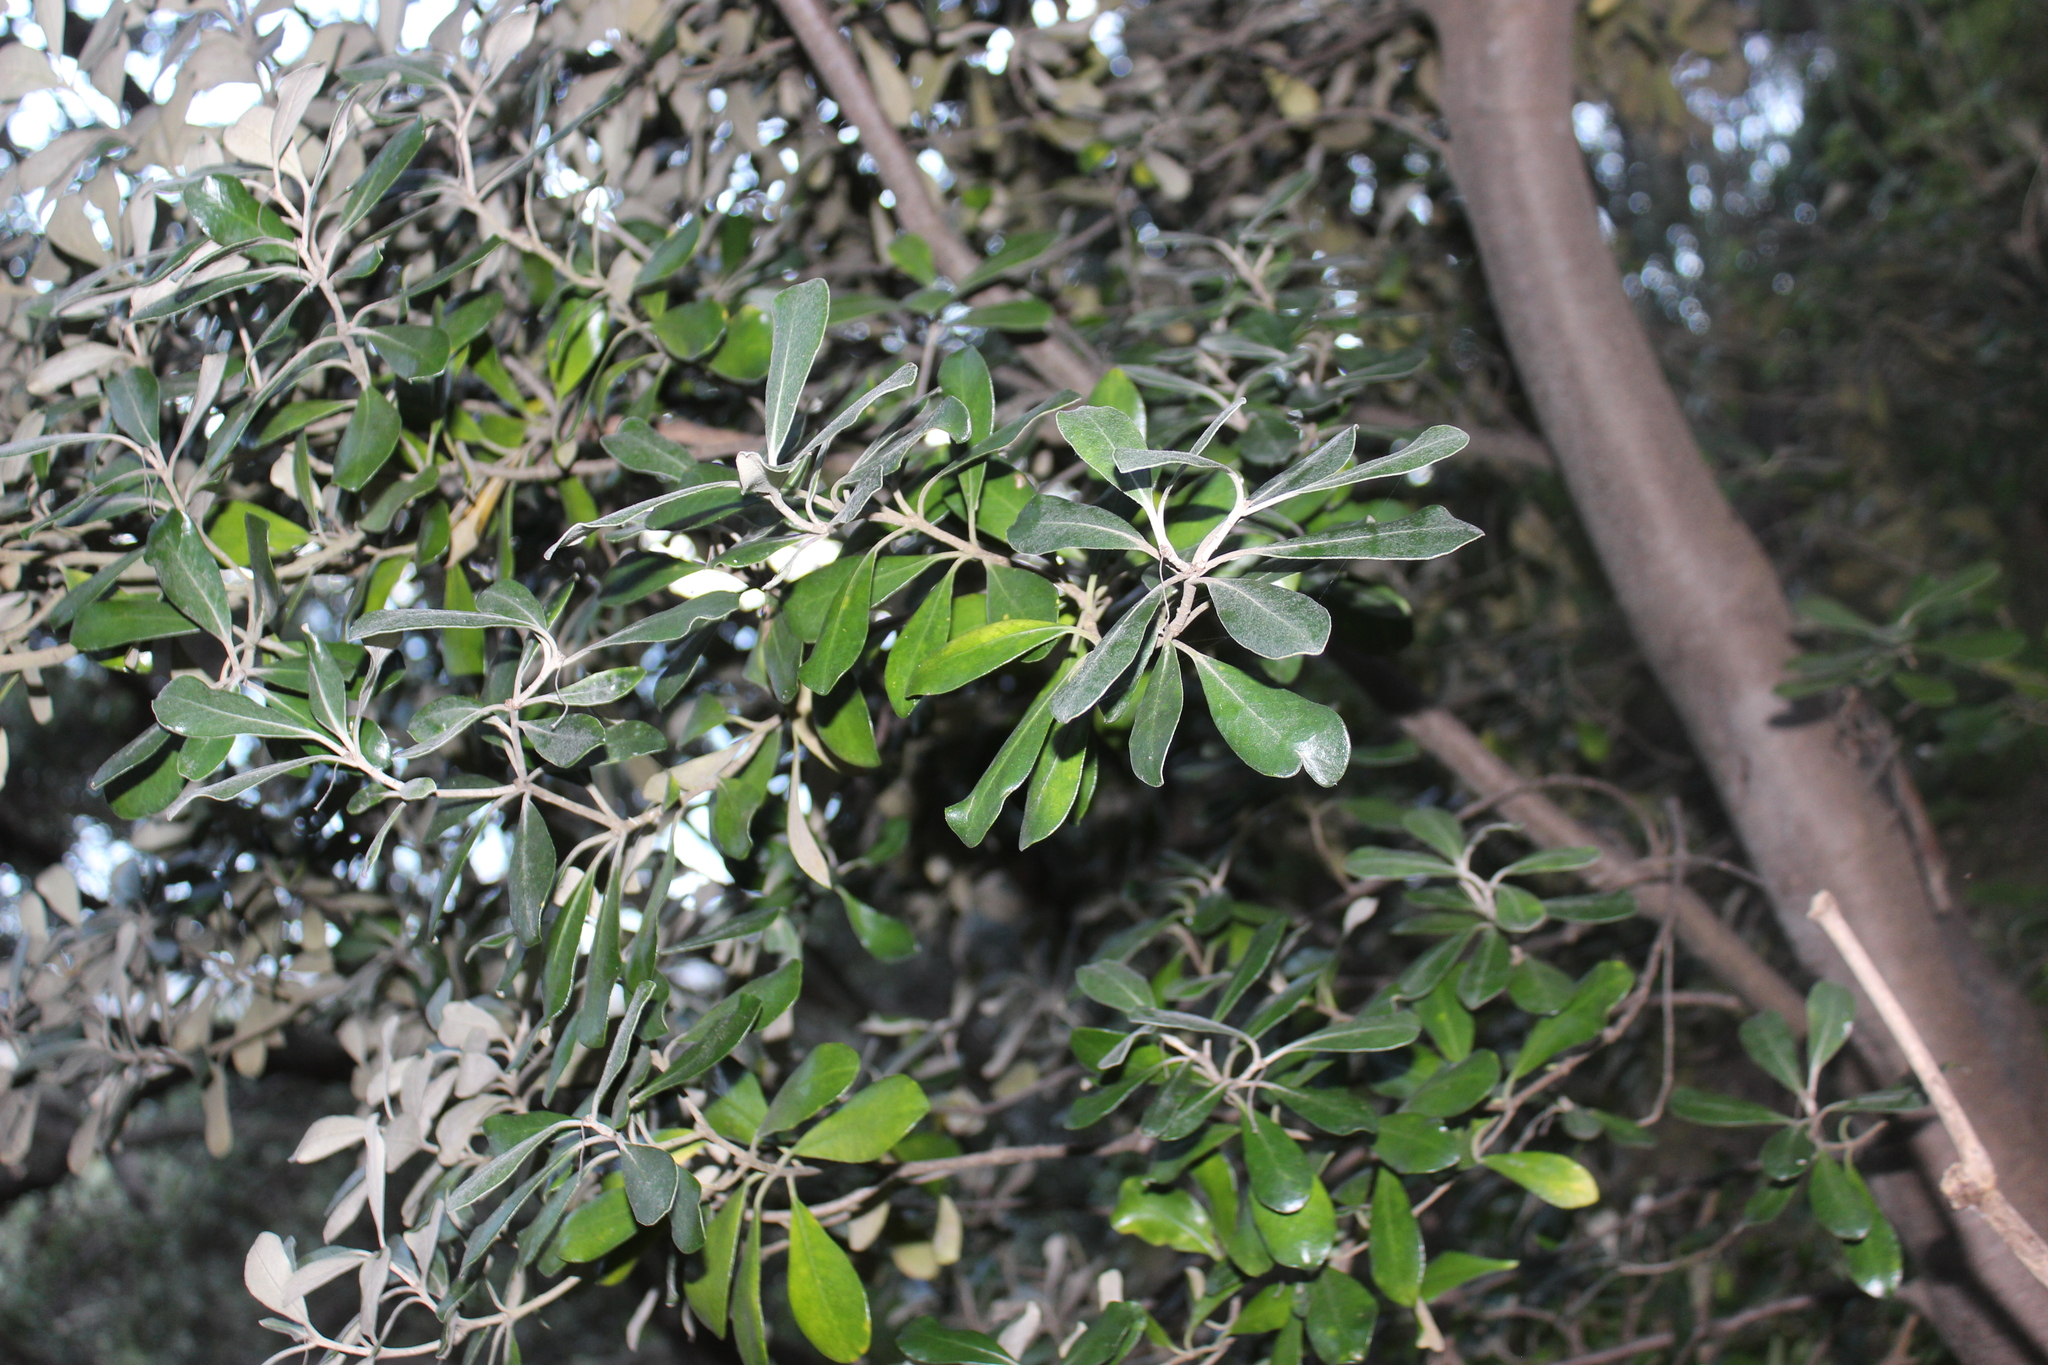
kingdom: Plantae
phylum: Tracheophyta
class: Magnoliopsida
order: Apiales
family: Pittosporaceae
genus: Pittosporum
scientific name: Pittosporum crassifolium
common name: Karo
